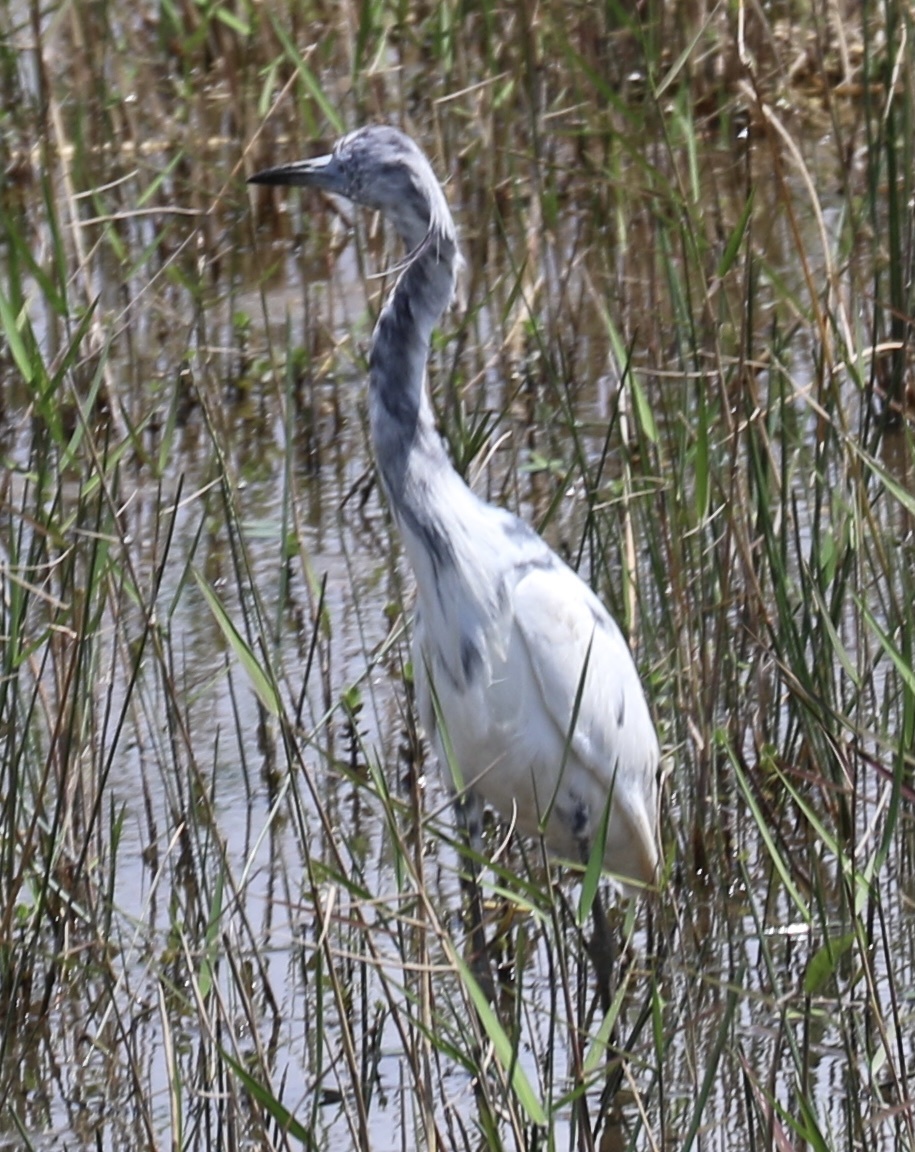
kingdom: Animalia
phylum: Chordata
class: Aves
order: Pelecaniformes
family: Ardeidae
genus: Egretta
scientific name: Egretta caerulea
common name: Little blue heron
